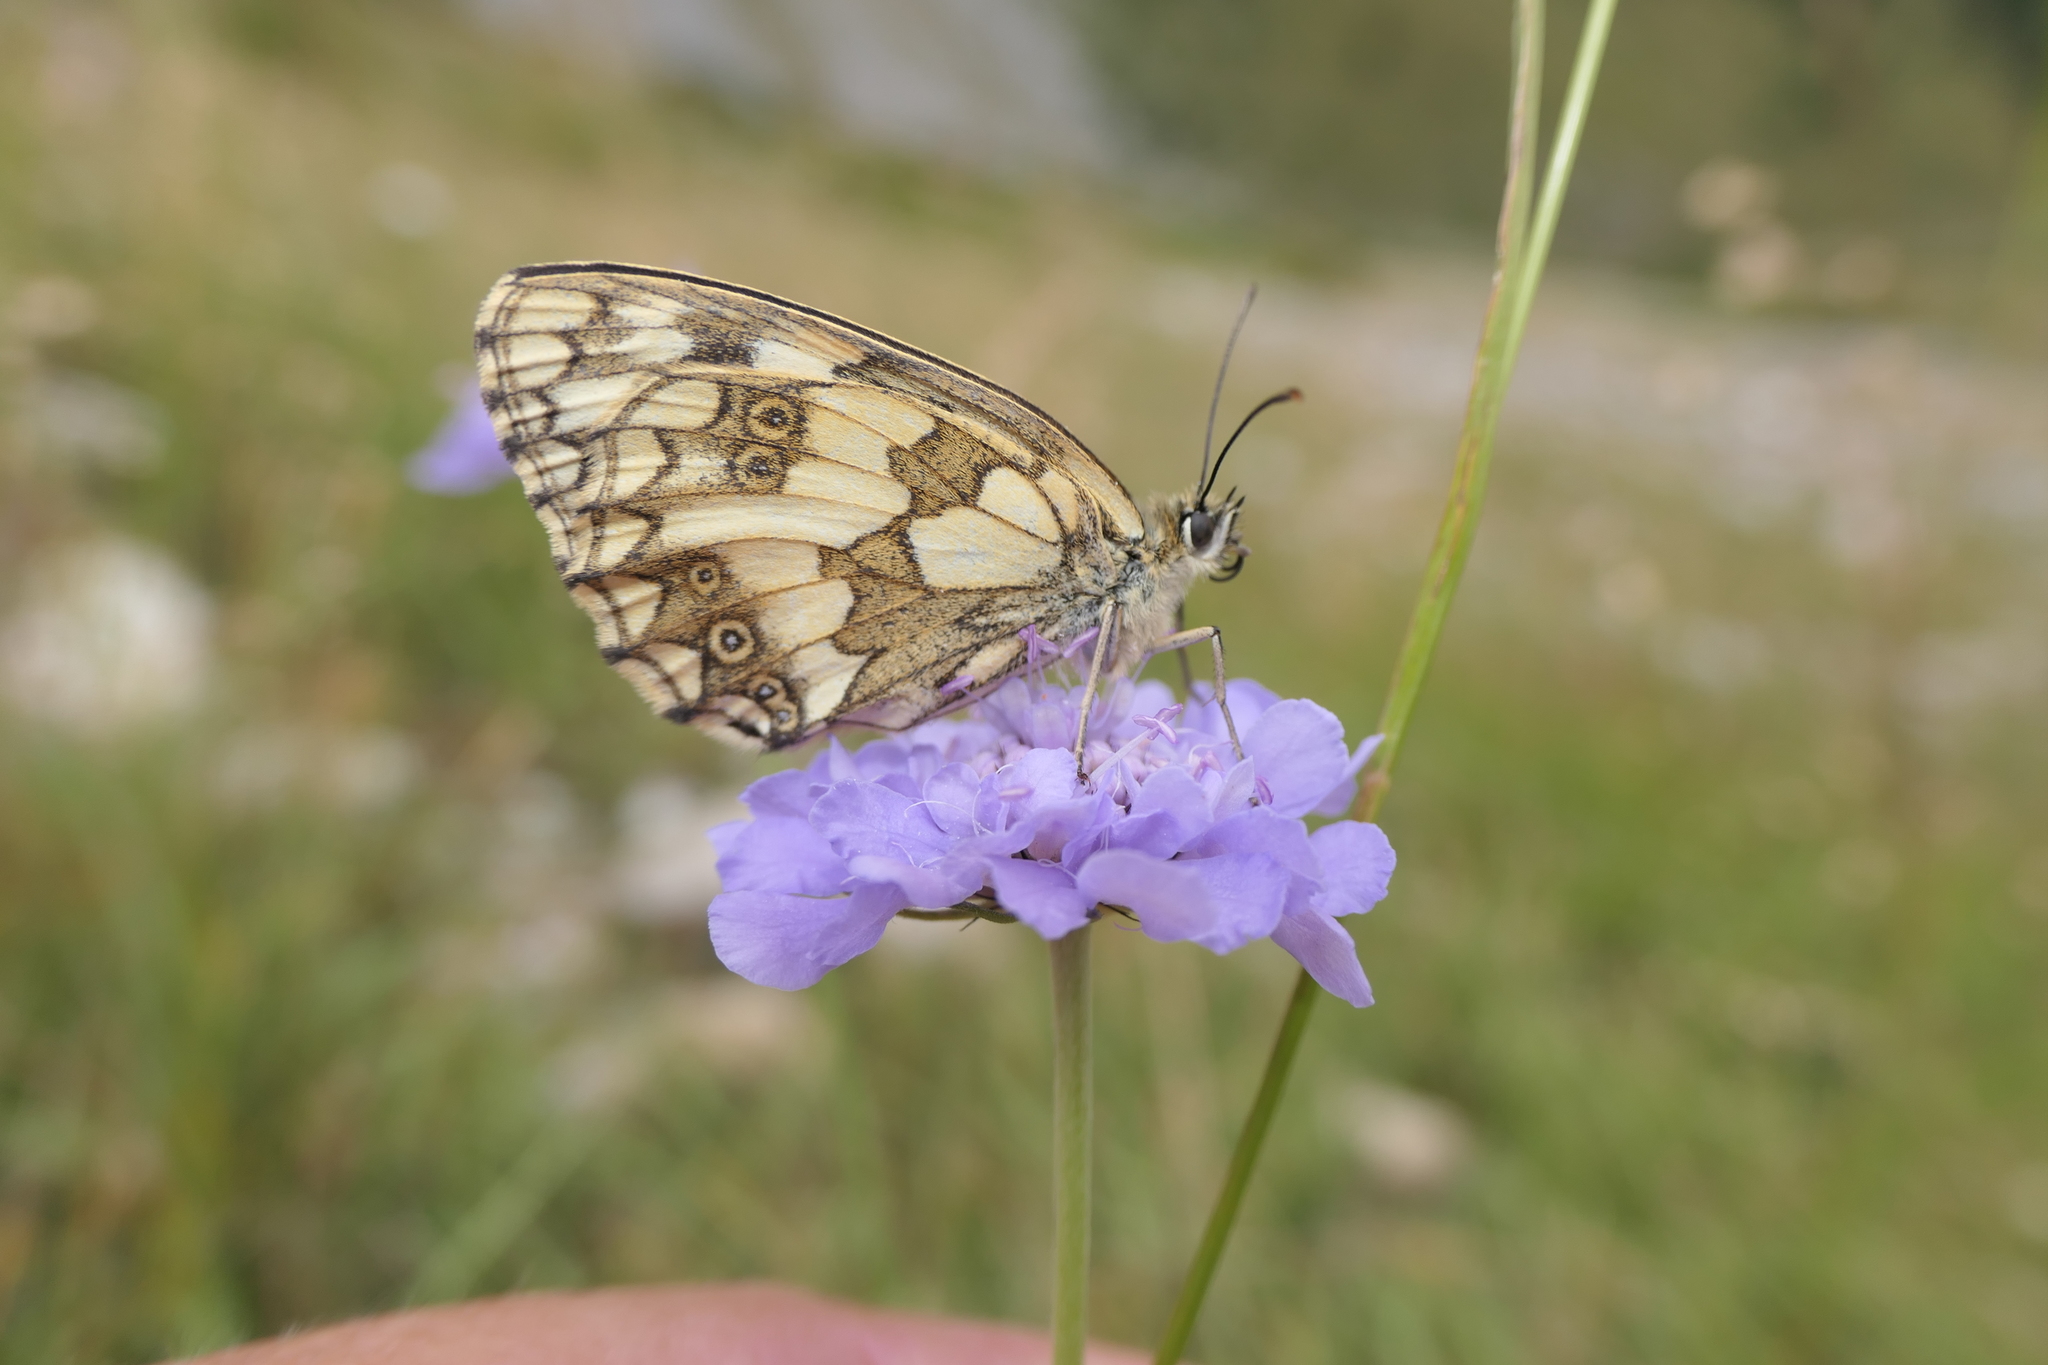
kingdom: Animalia
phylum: Arthropoda
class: Insecta
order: Lepidoptera
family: Nymphalidae
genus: Melanargia
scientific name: Melanargia galathea
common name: Marbled white
